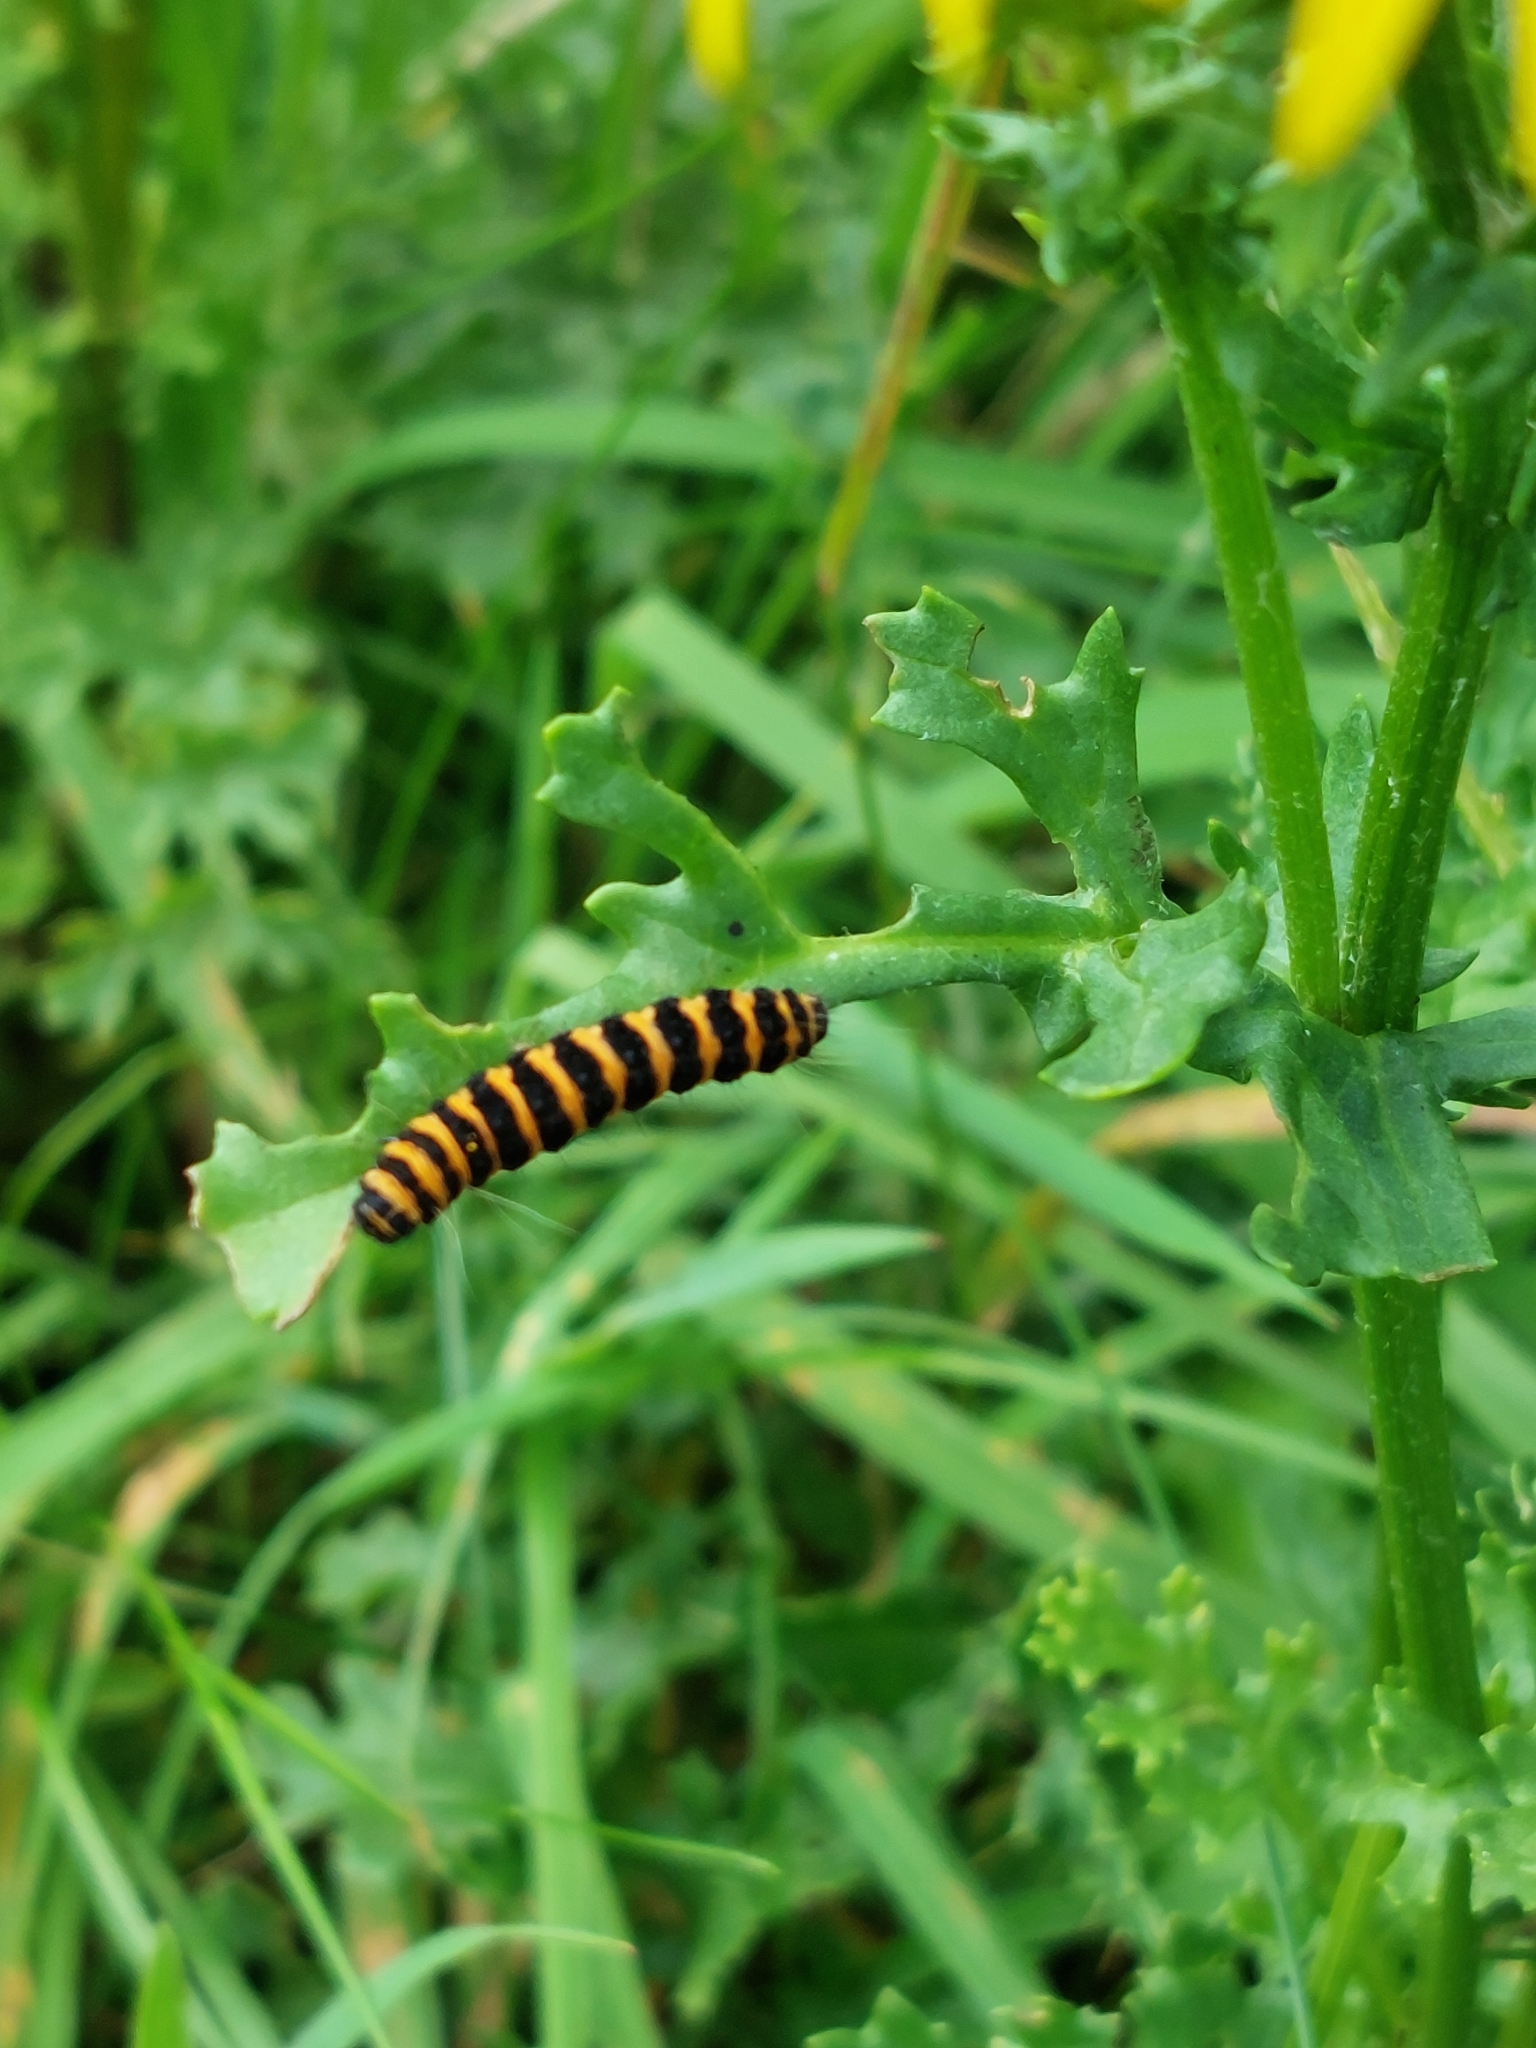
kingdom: Animalia
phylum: Arthropoda
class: Insecta
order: Lepidoptera
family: Erebidae
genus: Tyria
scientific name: Tyria jacobaeae
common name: Cinnabar
